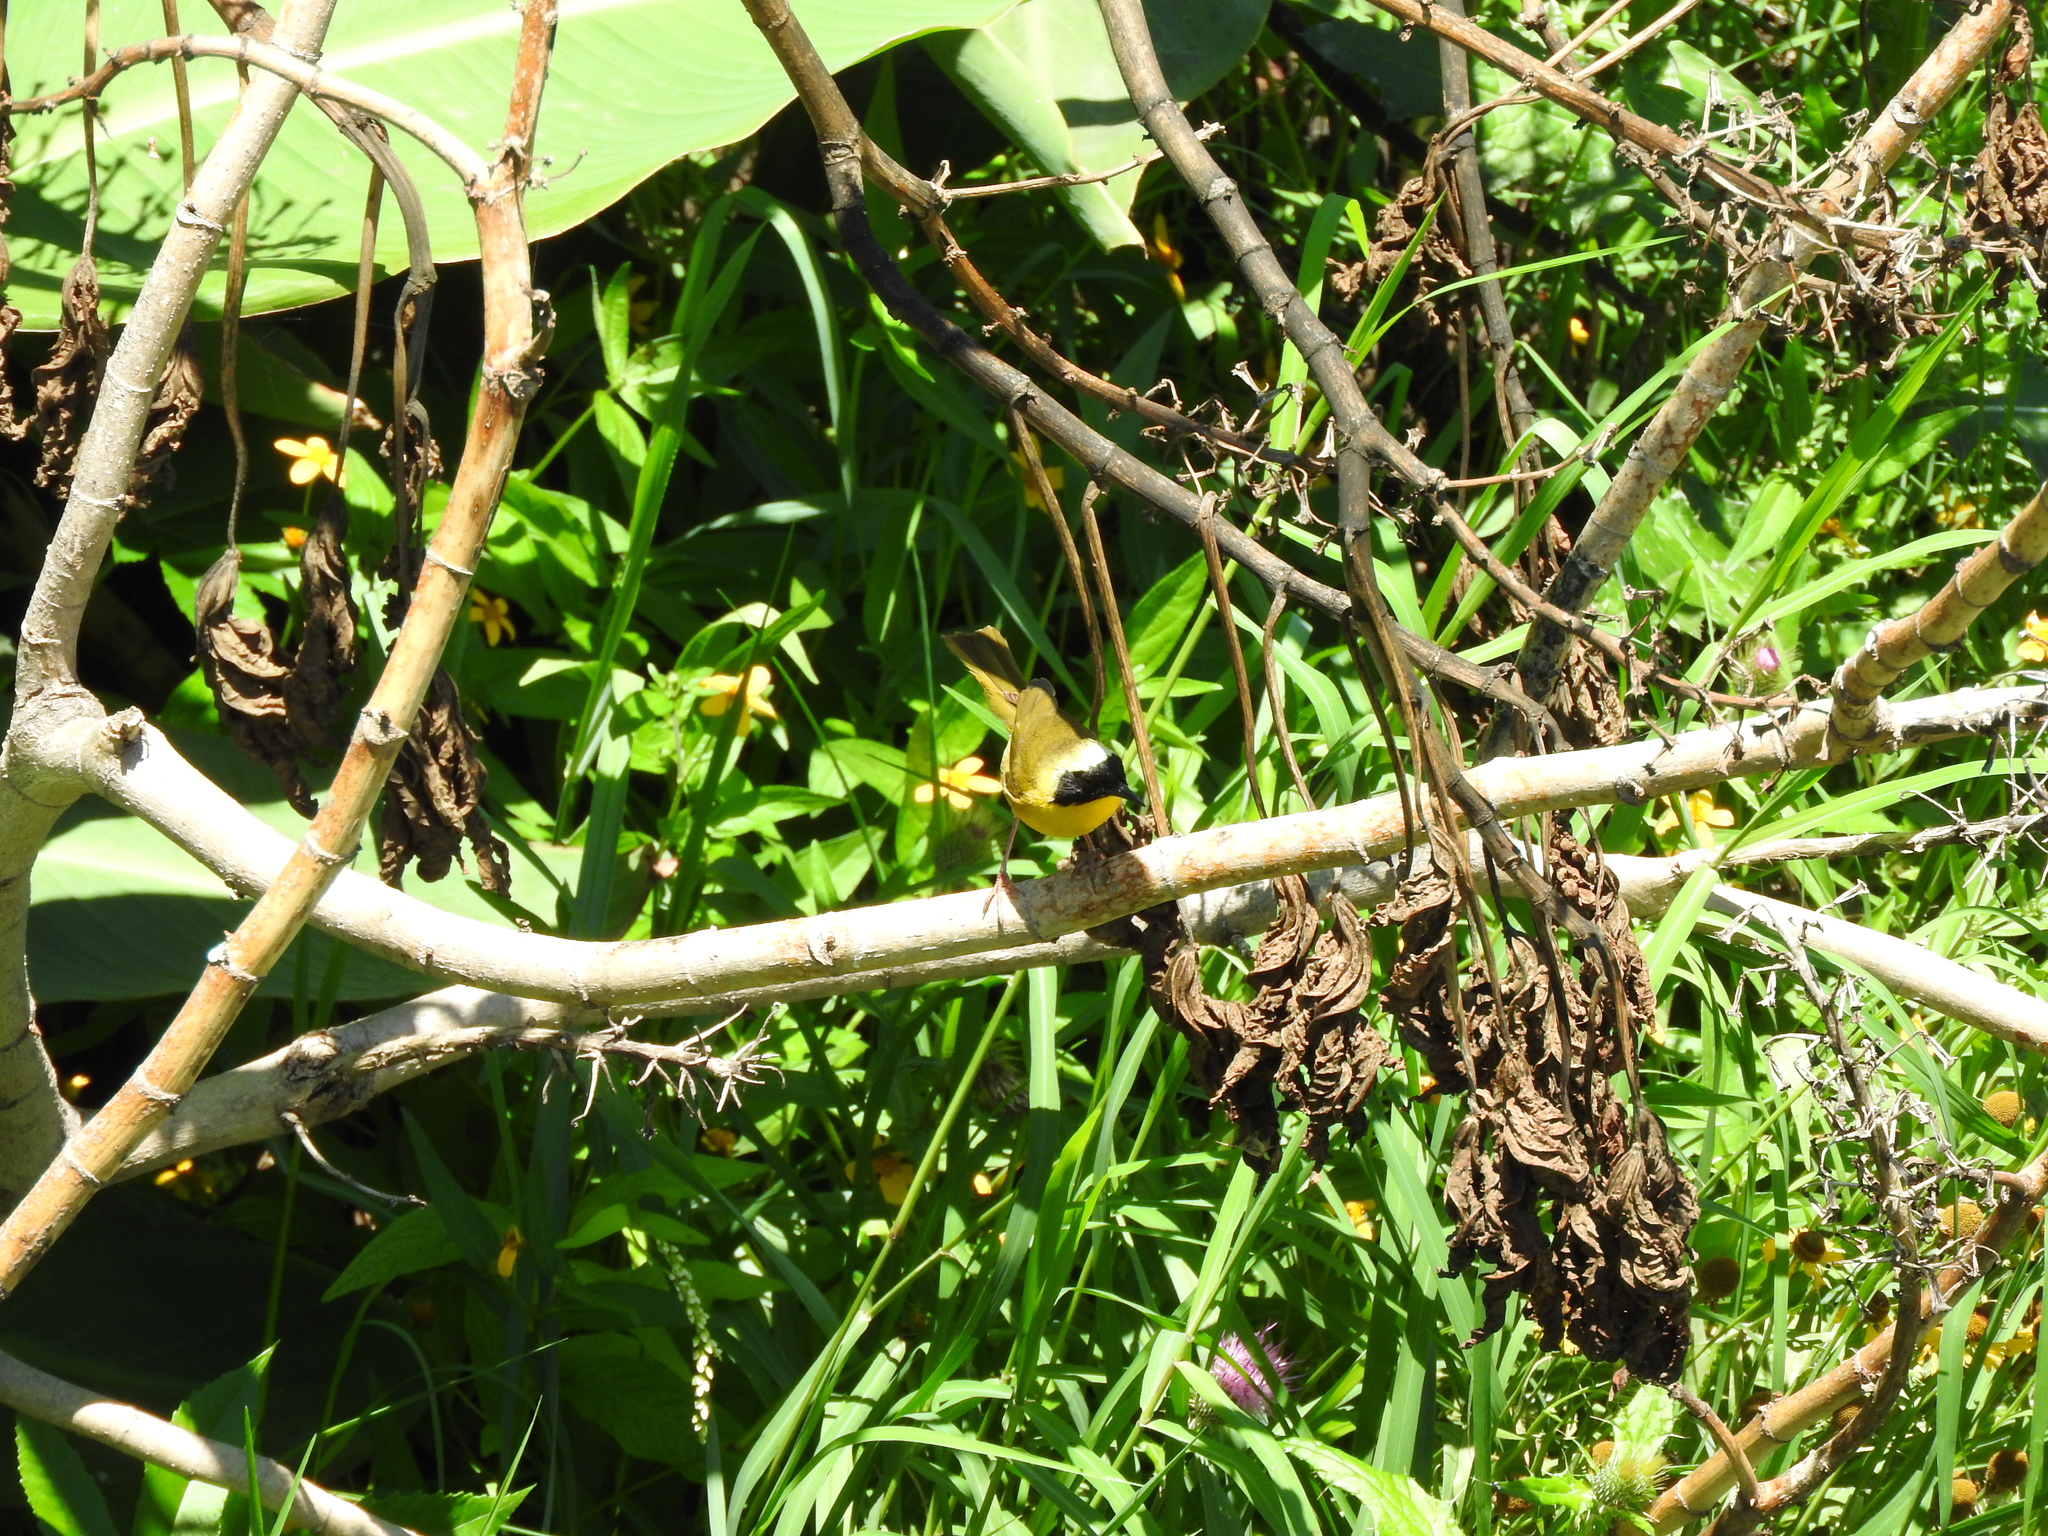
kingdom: Animalia
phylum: Chordata
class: Aves
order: Passeriformes
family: Parulidae
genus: Geothlypis
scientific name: Geothlypis trichas
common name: Common yellowthroat
